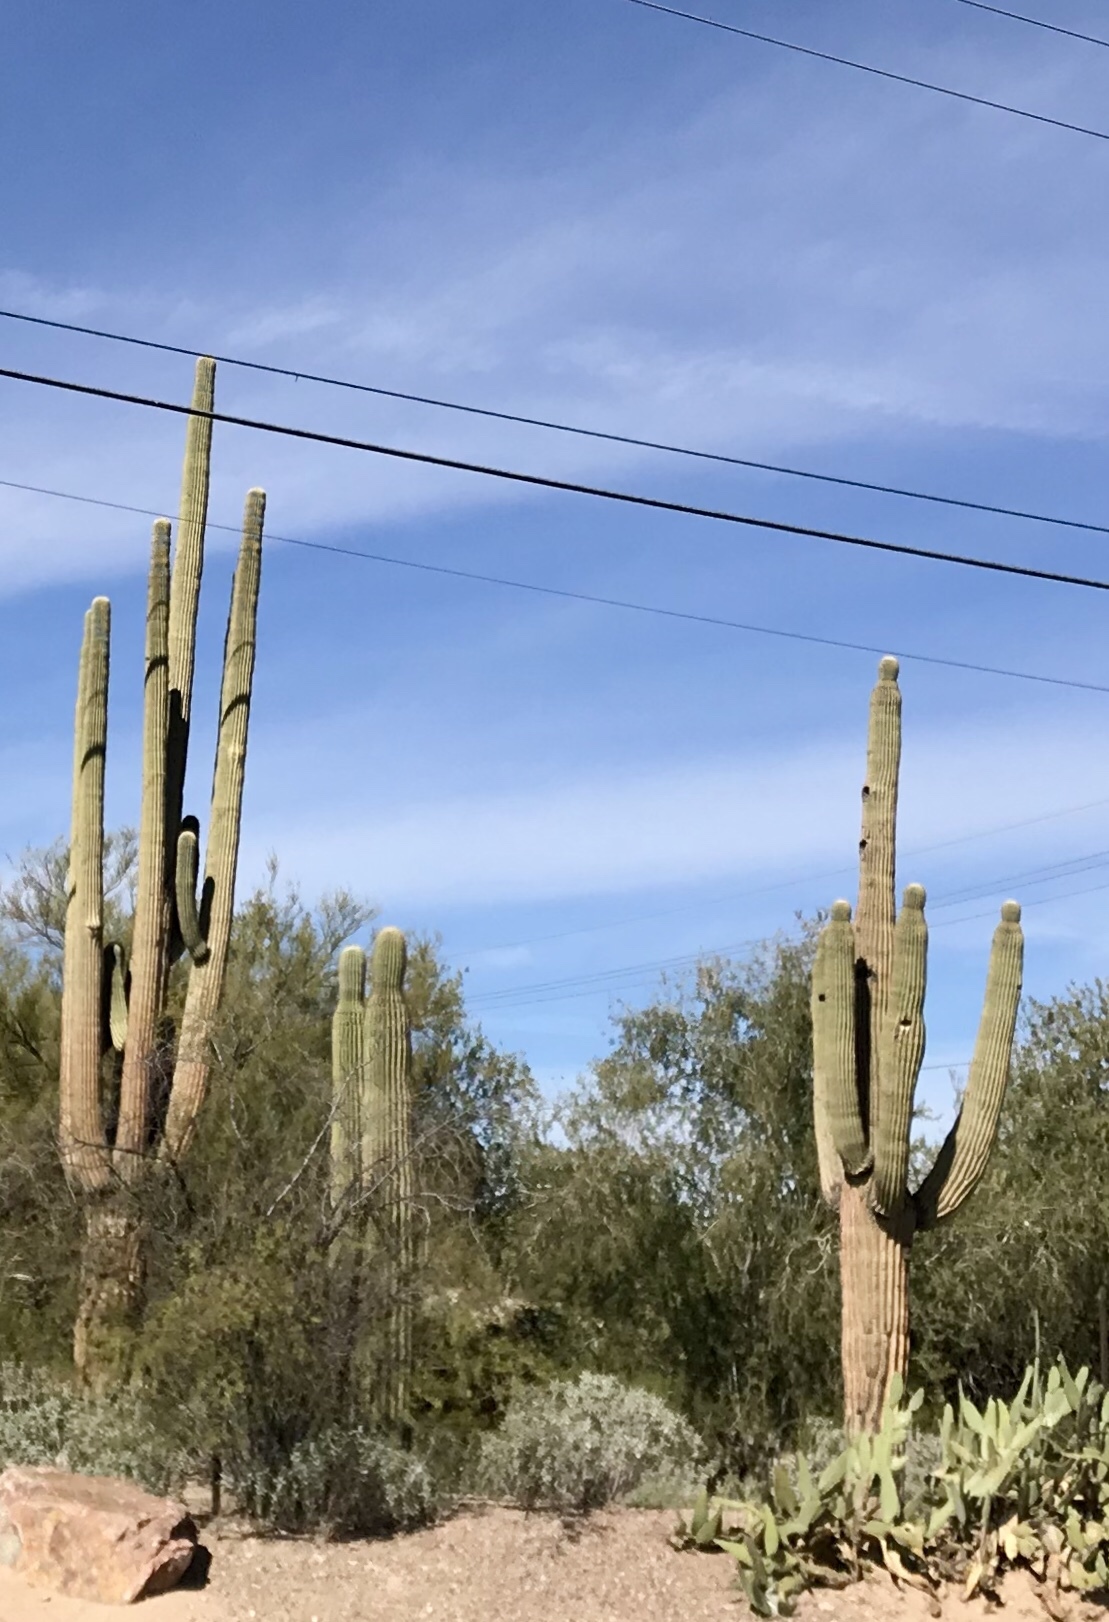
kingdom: Plantae
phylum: Tracheophyta
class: Magnoliopsida
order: Caryophyllales
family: Cactaceae
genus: Carnegiea
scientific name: Carnegiea gigantea
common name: Saguaro
